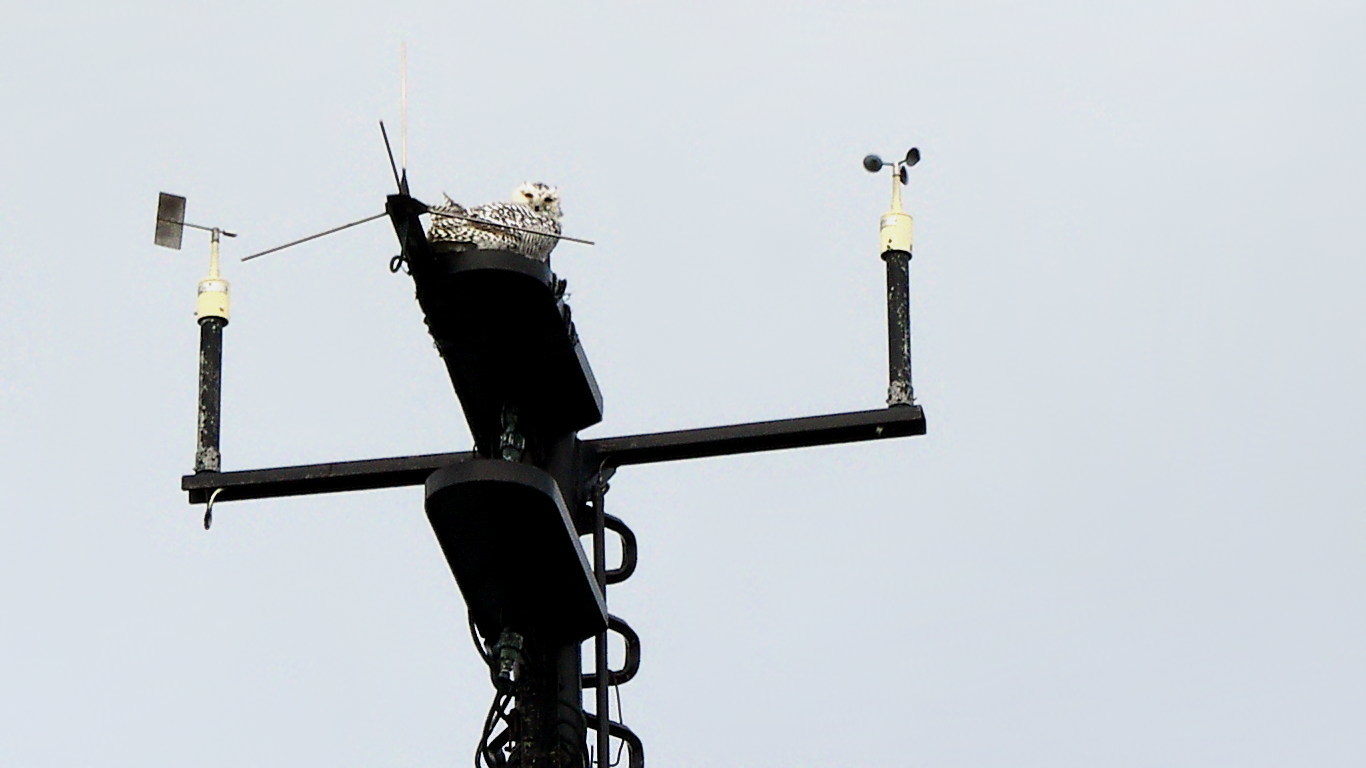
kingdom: Animalia
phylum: Chordata
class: Aves
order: Strigiformes
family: Strigidae
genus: Bubo
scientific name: Bubo scandiacus
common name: Snowy owl
